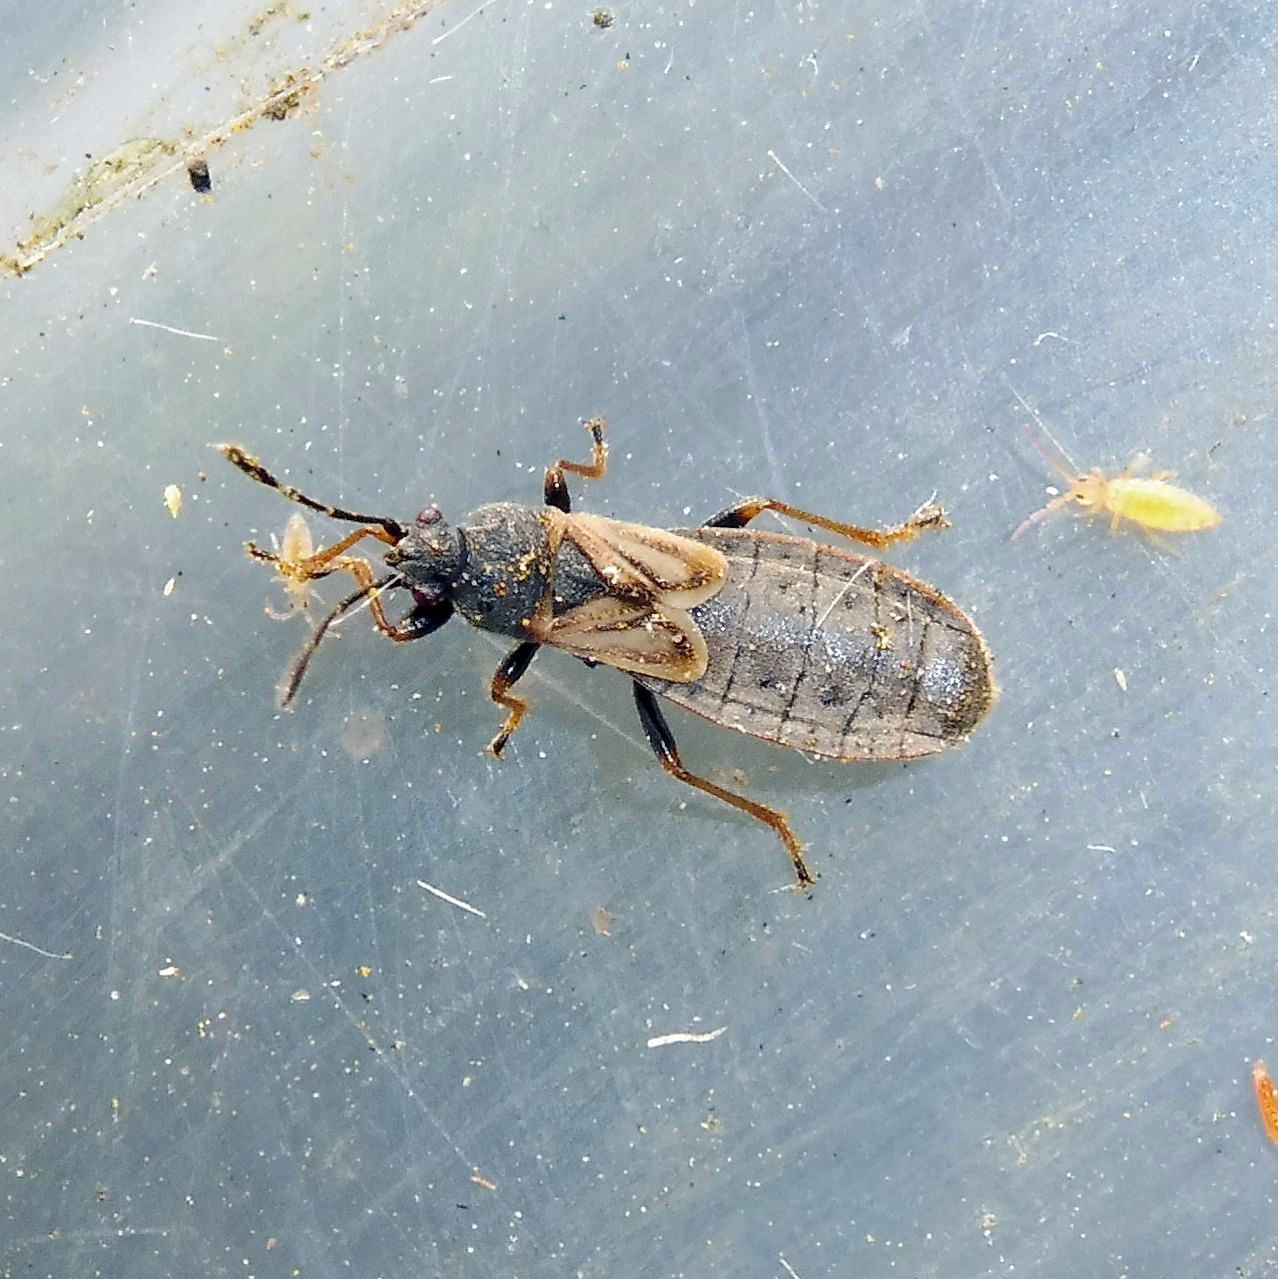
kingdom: Animalia
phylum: Arthropoda
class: Insecta
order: Hemiptera
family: Blissidae
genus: Ischnodemus
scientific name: Ischnodemus sabuleti
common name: European cinchbug
